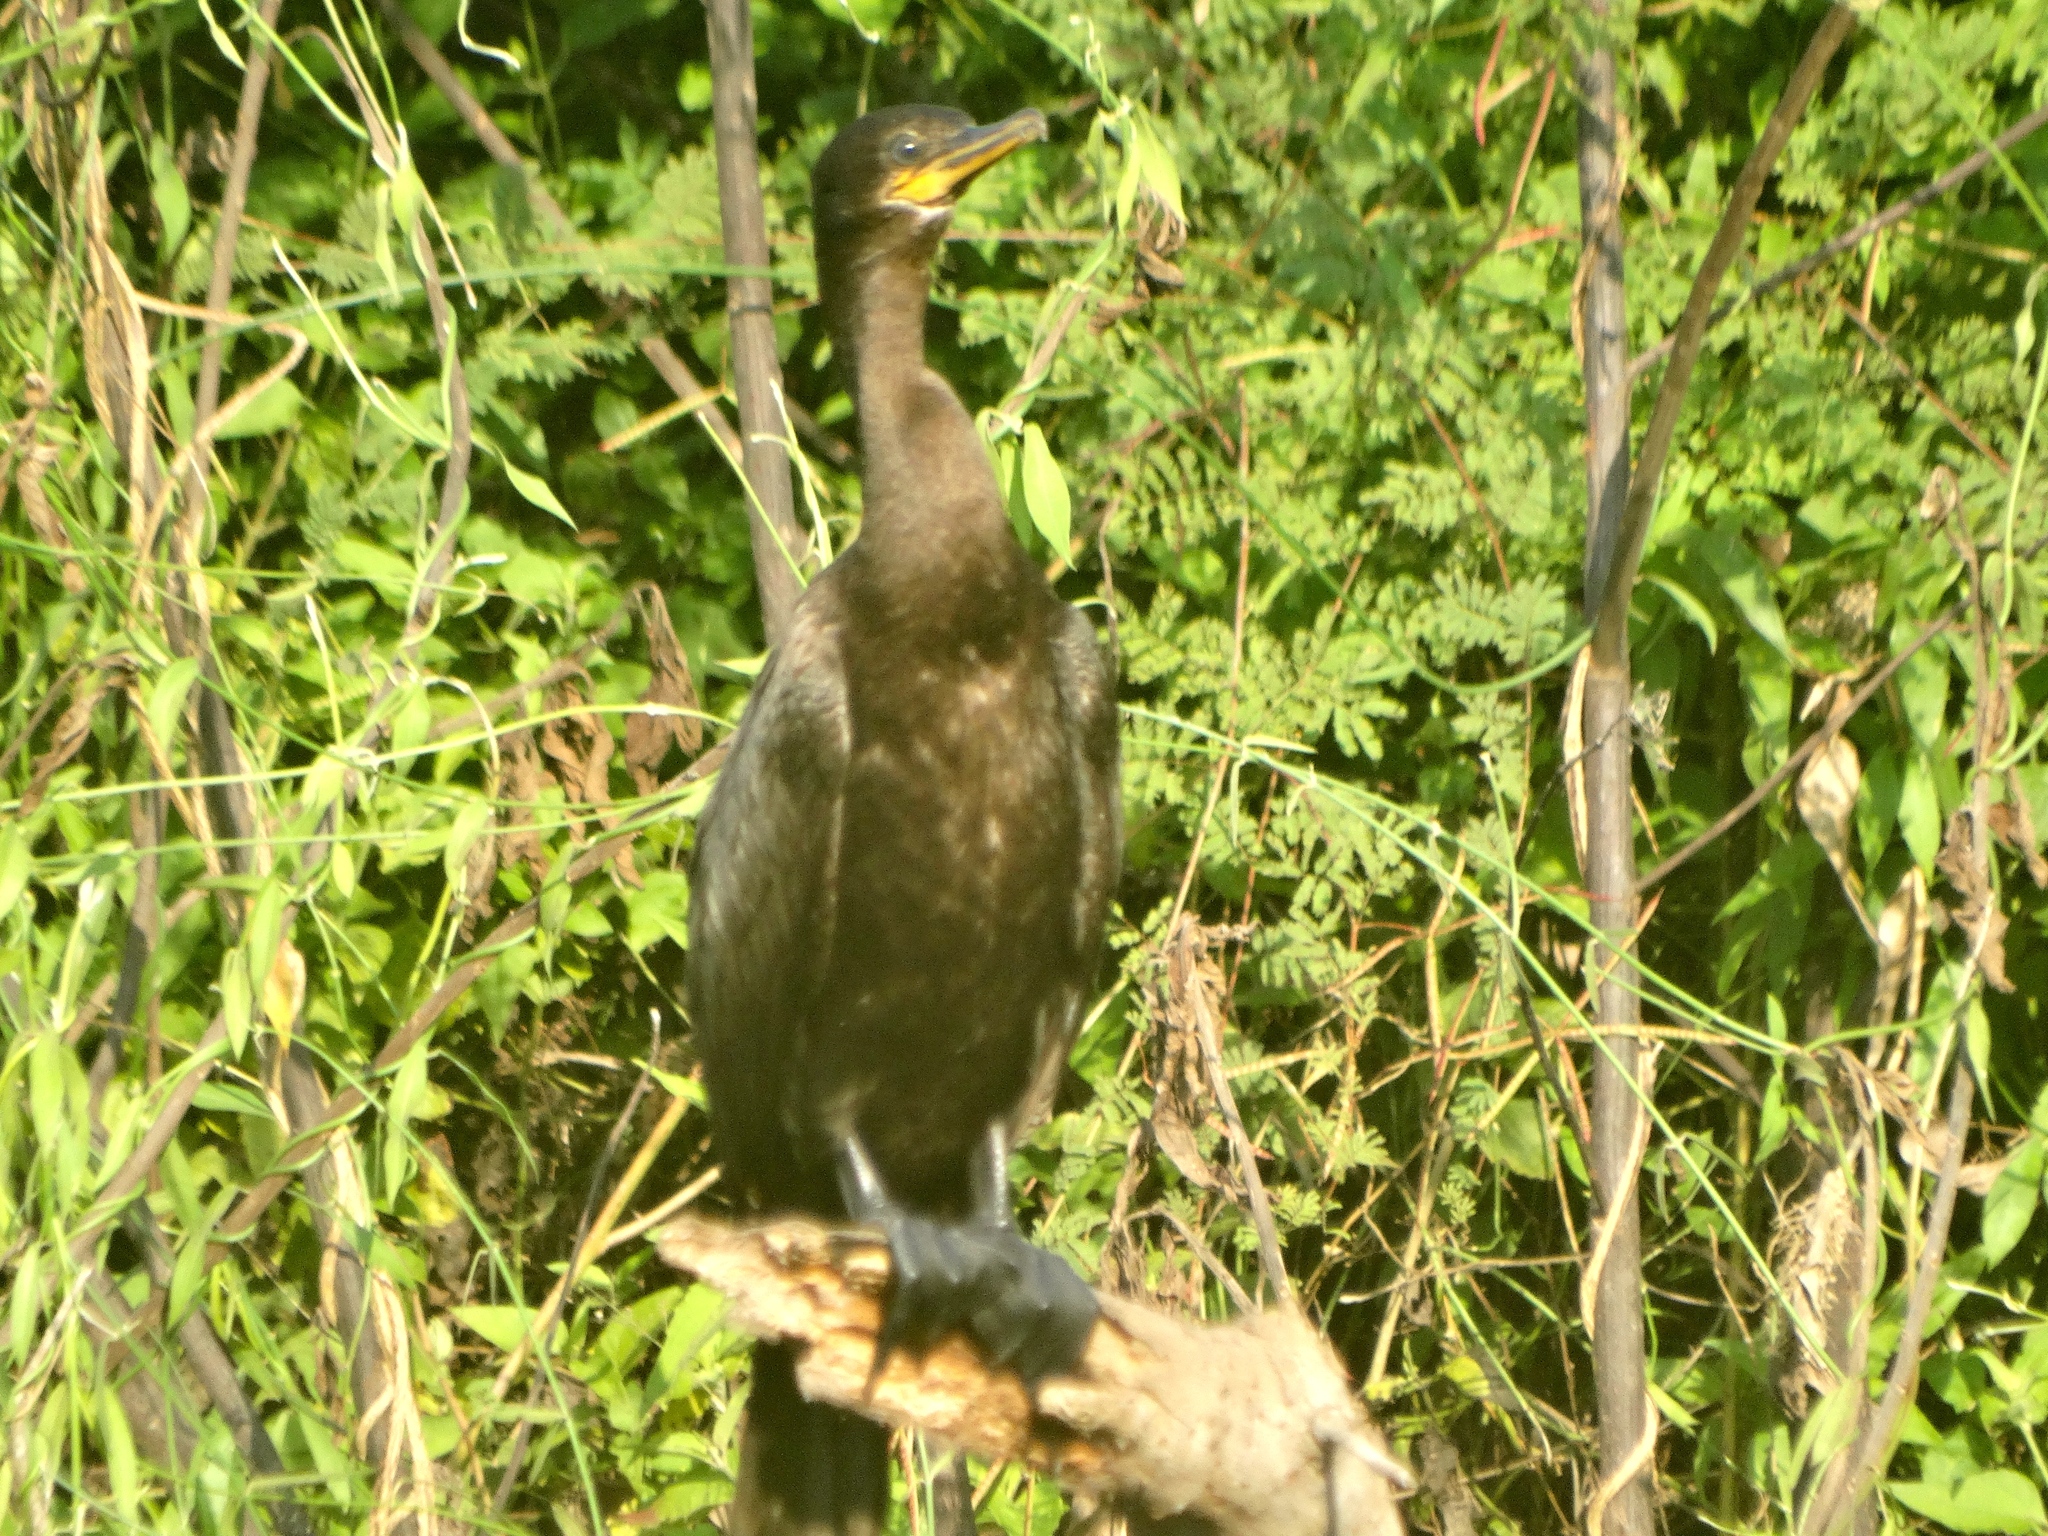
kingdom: Animalia
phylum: Chordata
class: Aves
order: Suliformes
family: Phalacrocoracidae
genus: Phalacrocorax
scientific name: Phalacrocorax brasilianus
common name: Neotropic cormorant
